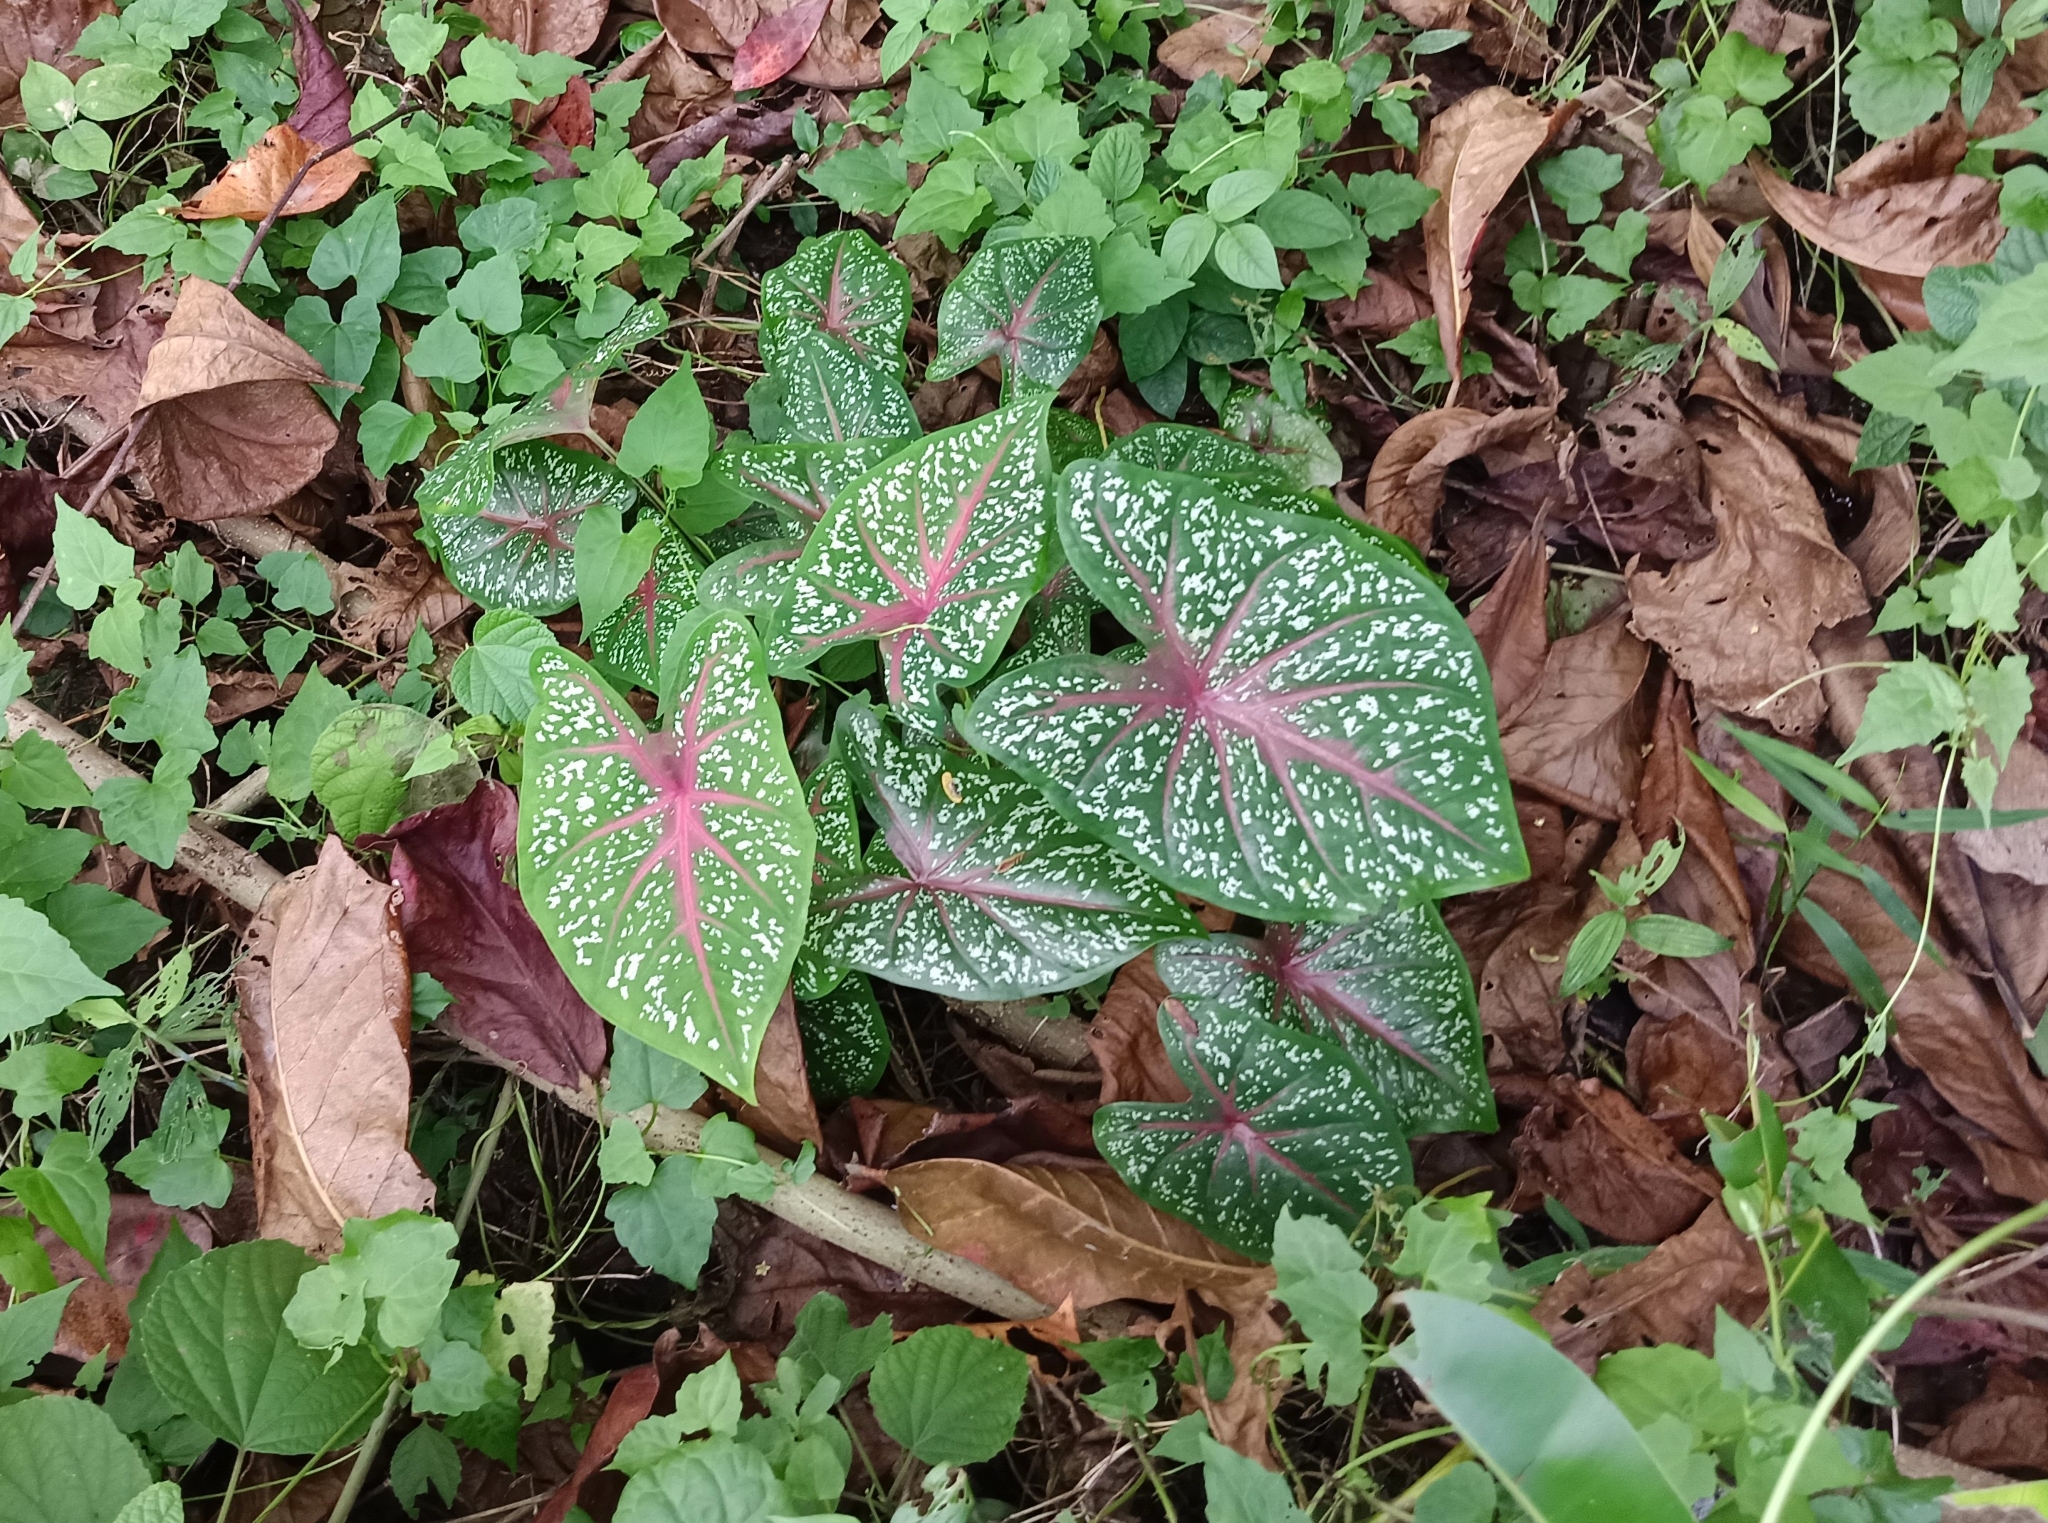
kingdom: Plantae
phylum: Tracheophyta
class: Liliopsida
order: Alismatales
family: Araceae
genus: Caladium
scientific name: Caladium bicolor
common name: Artist's pallet
